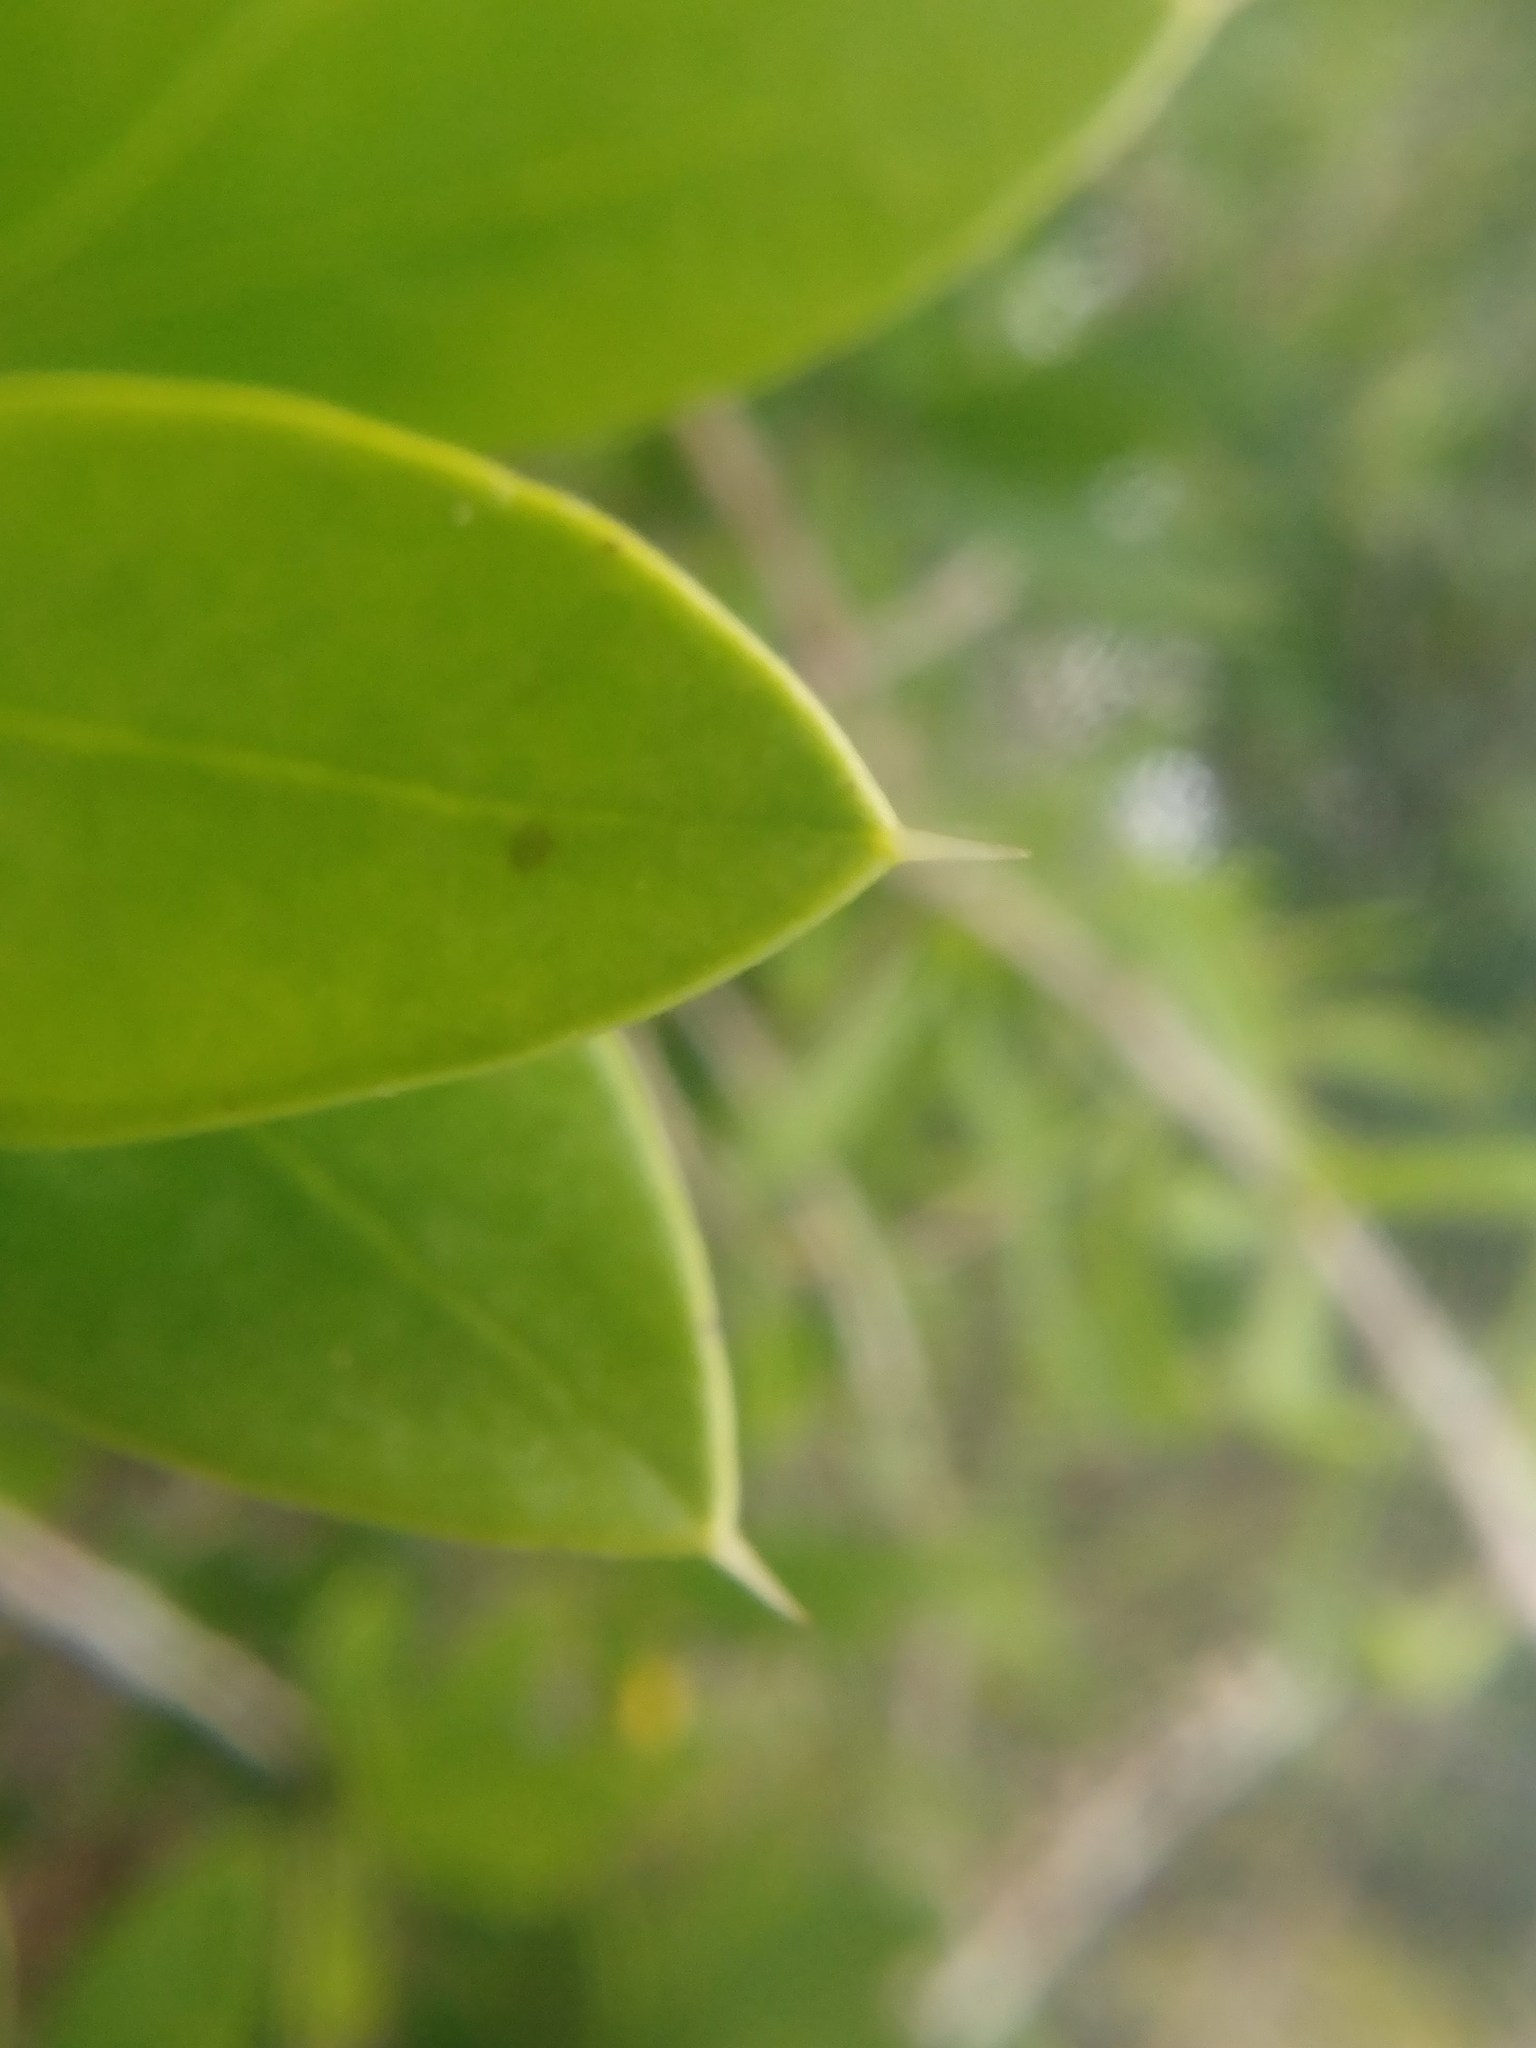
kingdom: Plantae
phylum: Tracheophyta
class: Magnoliopsida
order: Ericales
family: Primulaceae
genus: Bonellia
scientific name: Bonellia macrocarpa
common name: Primrose
